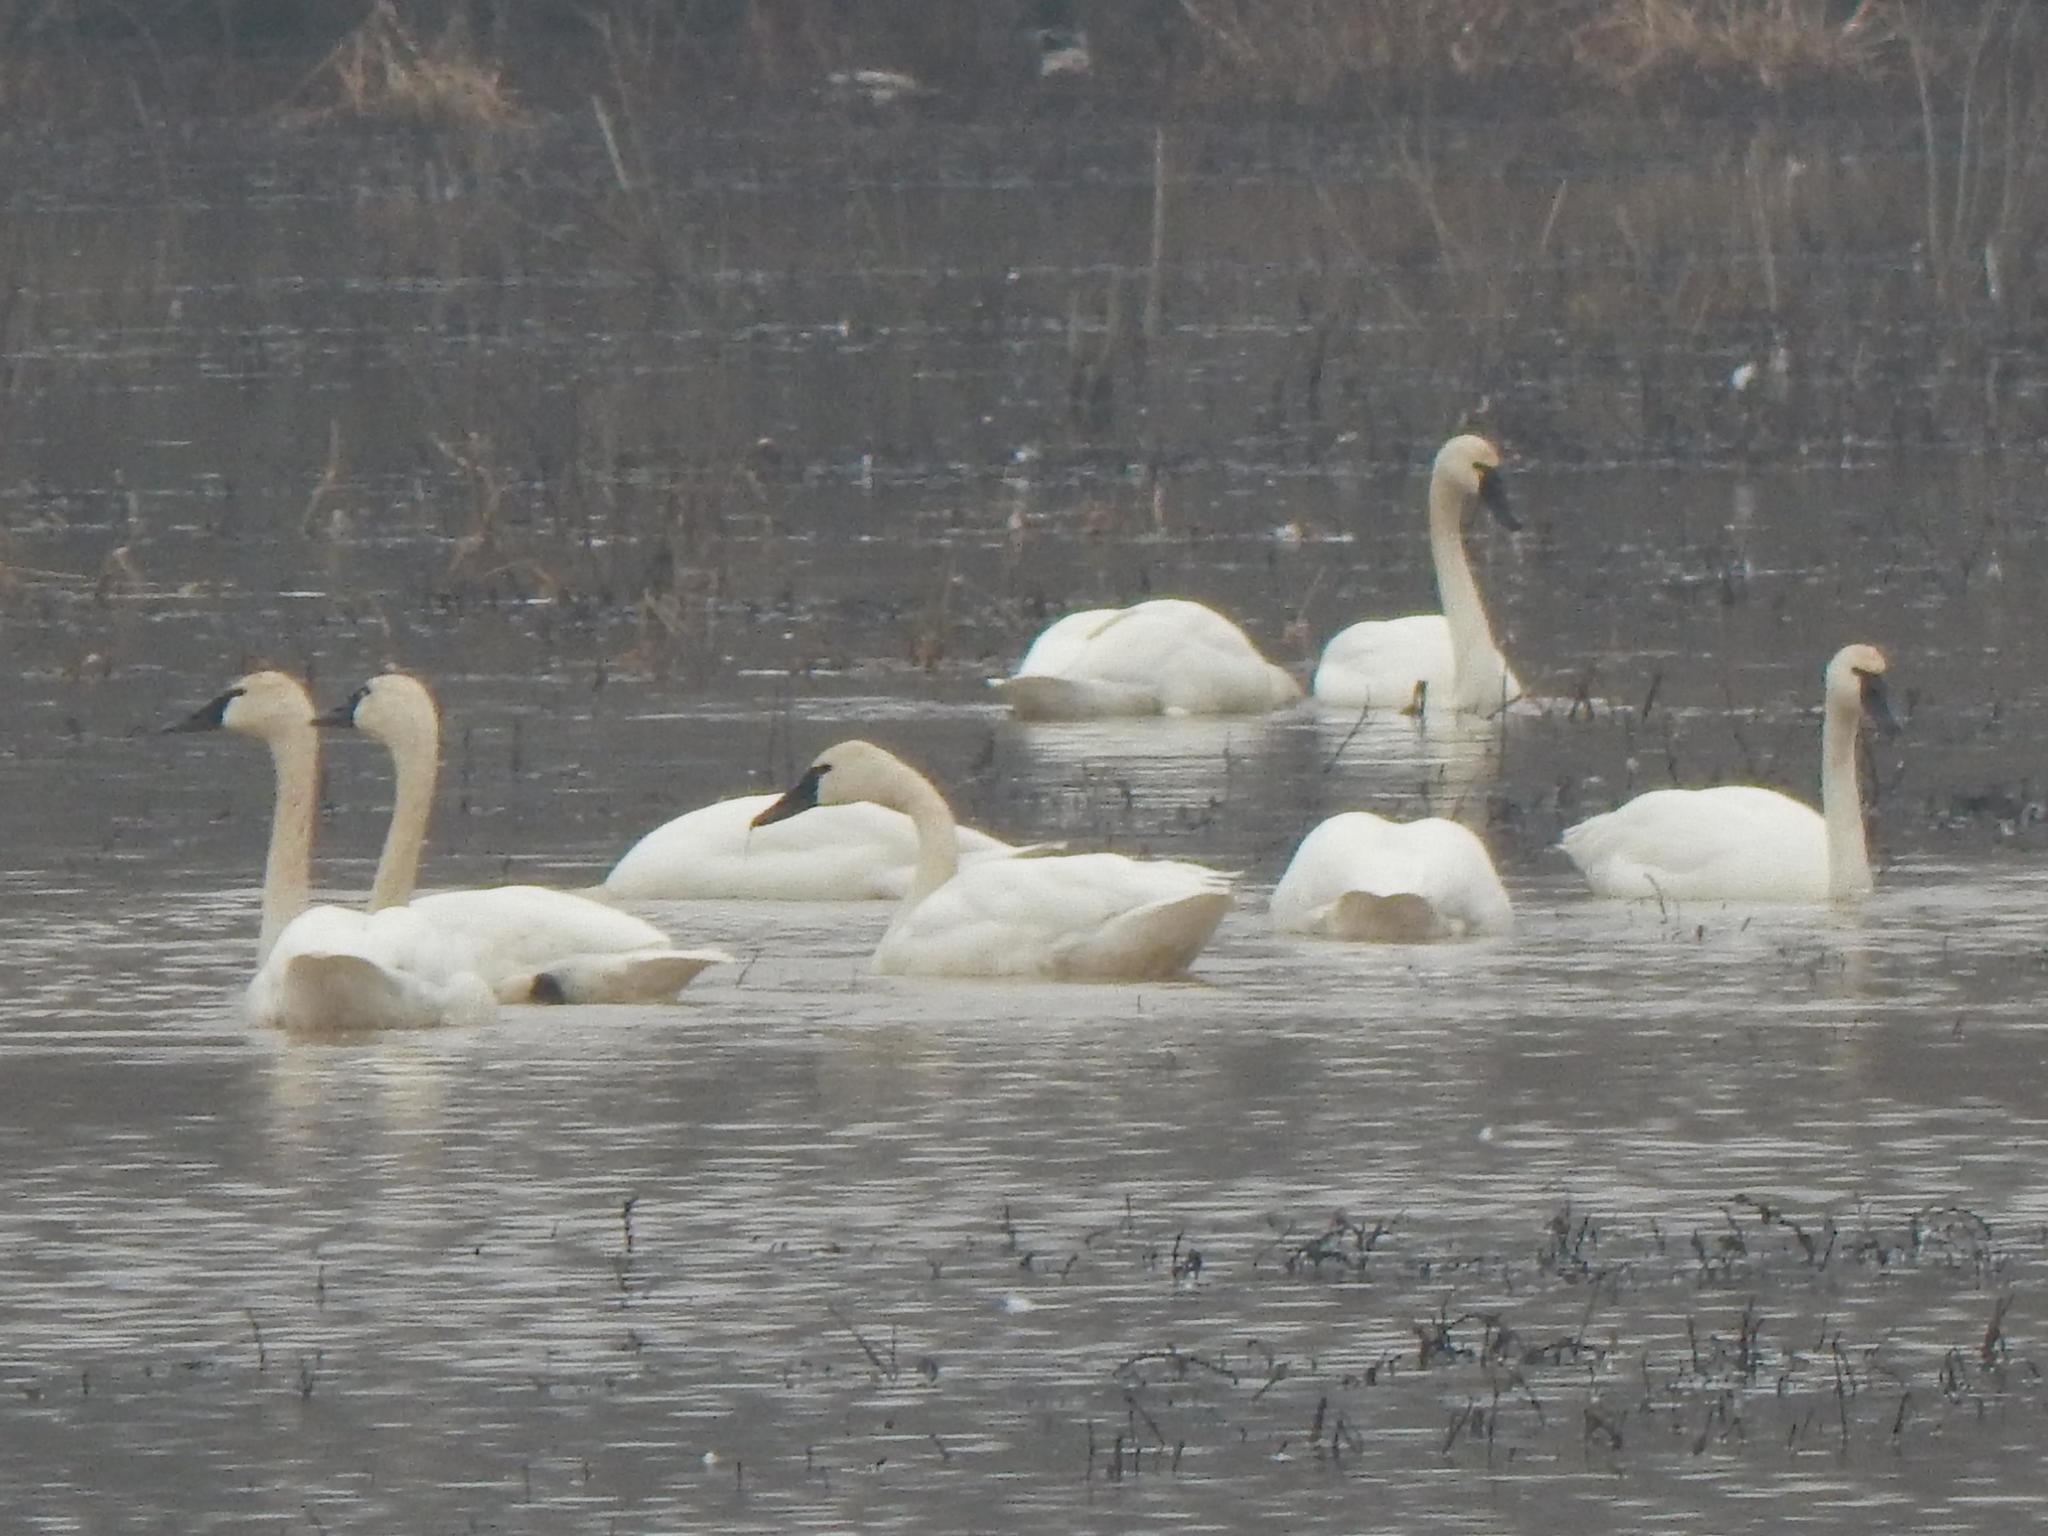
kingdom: Animalia
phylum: Chordata
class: Aves
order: Anseriformes
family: Anatidae
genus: Cygnus
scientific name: Cygnus columbianus
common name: Tundra swan
